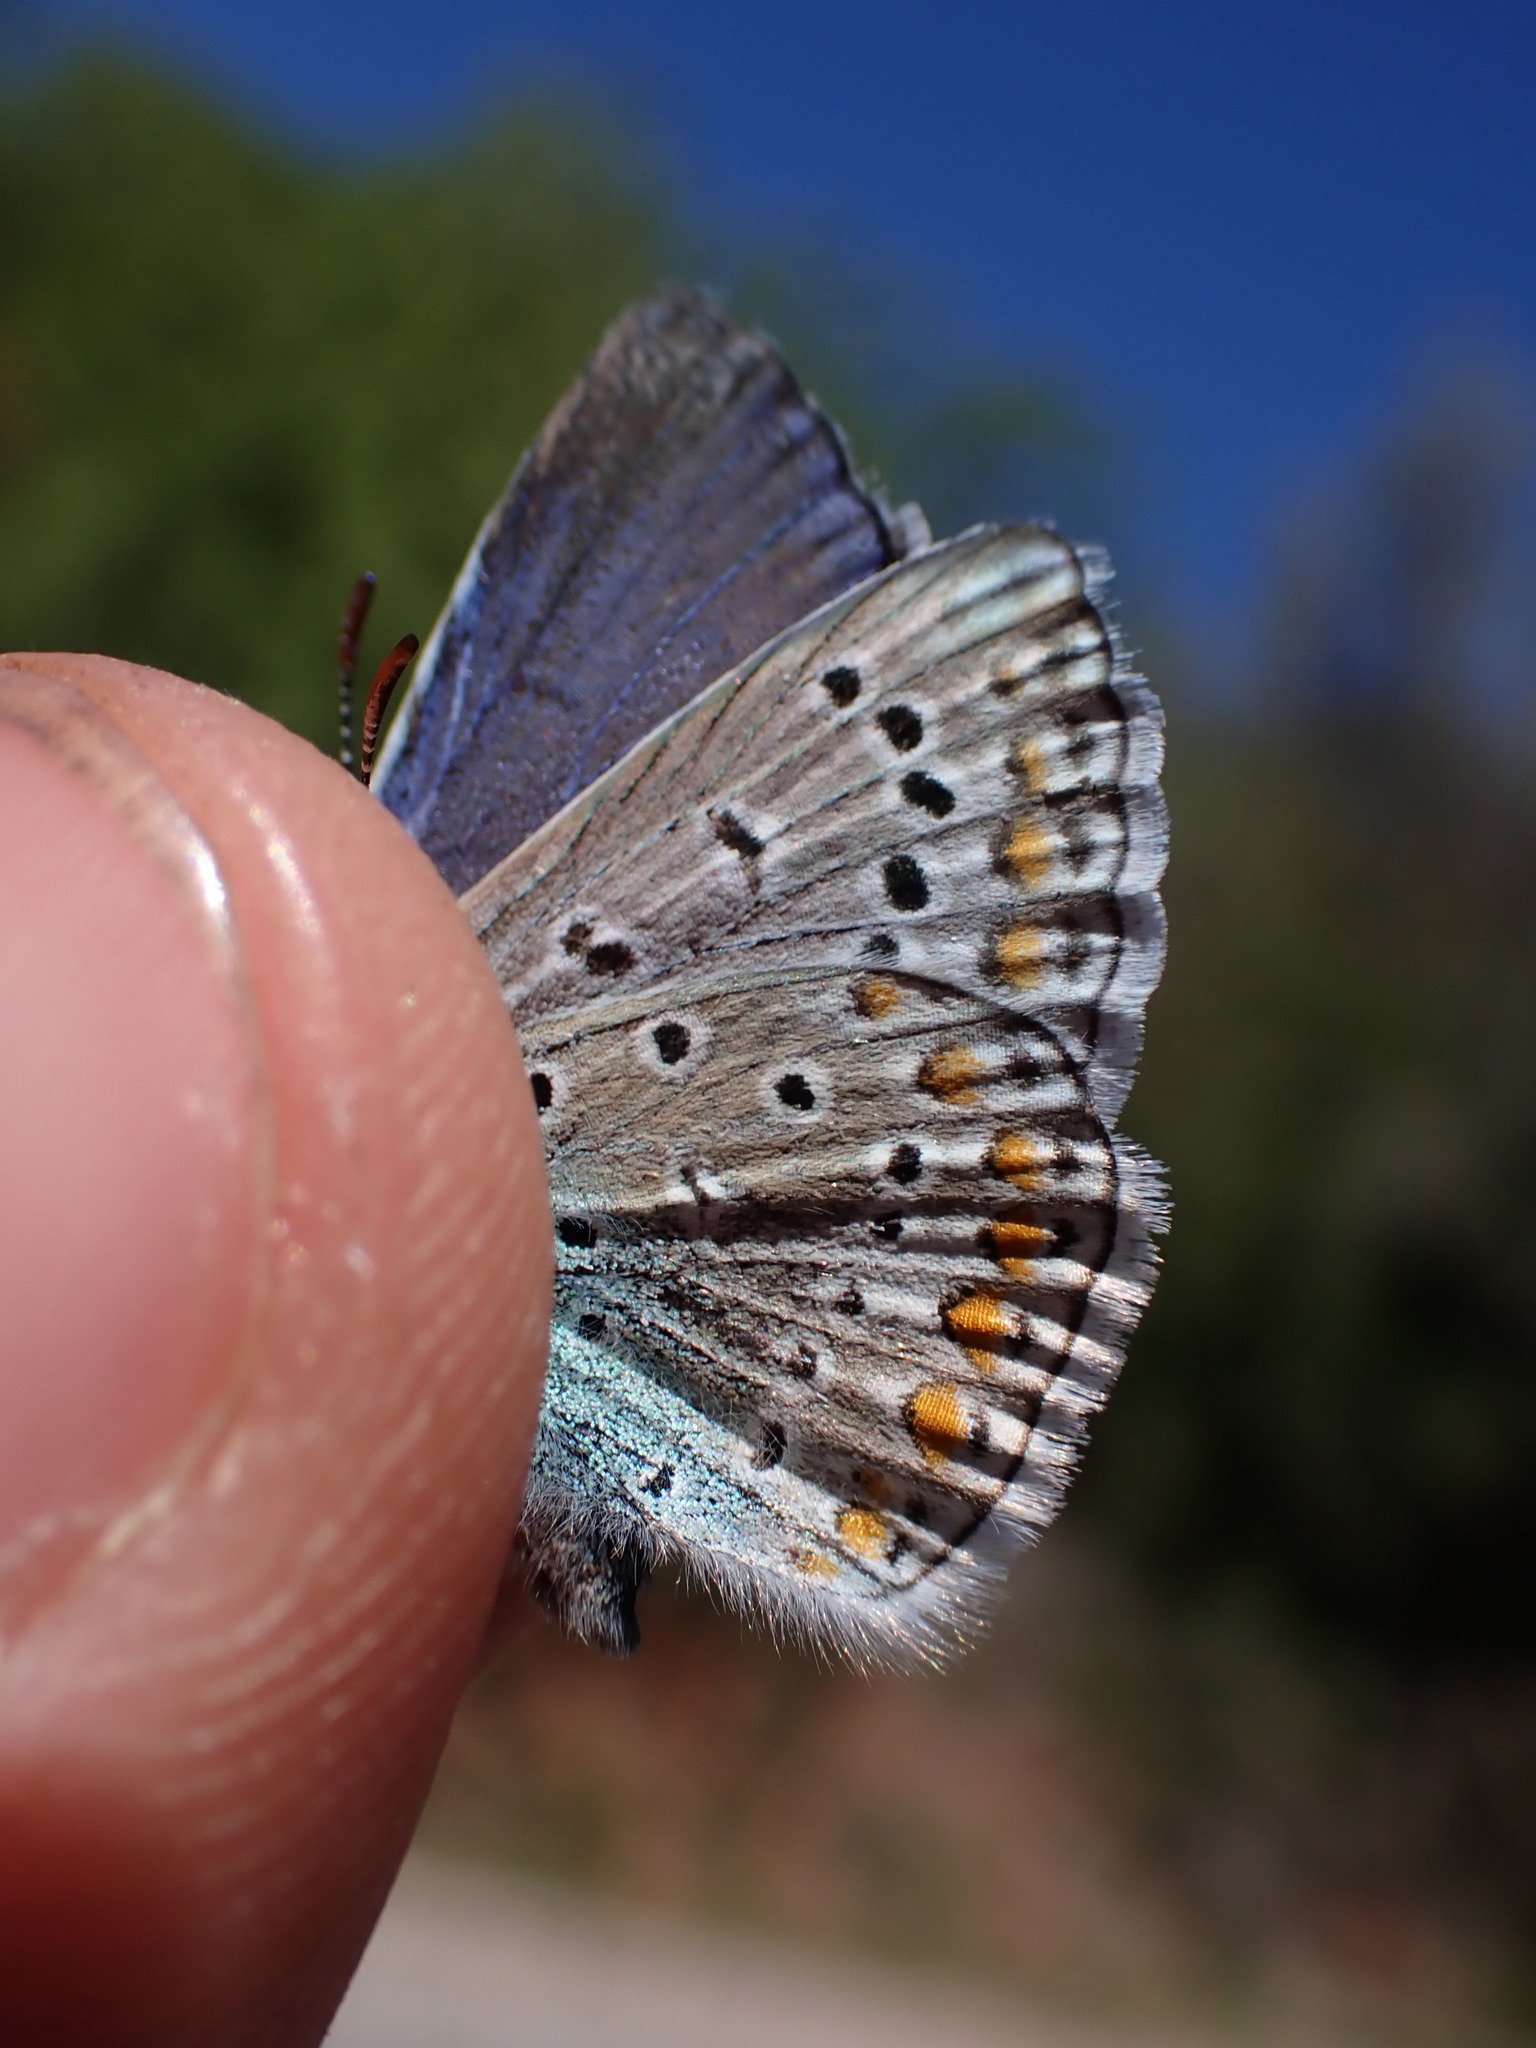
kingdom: Animalia
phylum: Arthropoda
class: Insecta
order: Lepidoptera
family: Lycaenidae
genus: Polyommatus
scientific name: Polyommatus icarus
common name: Common blue
